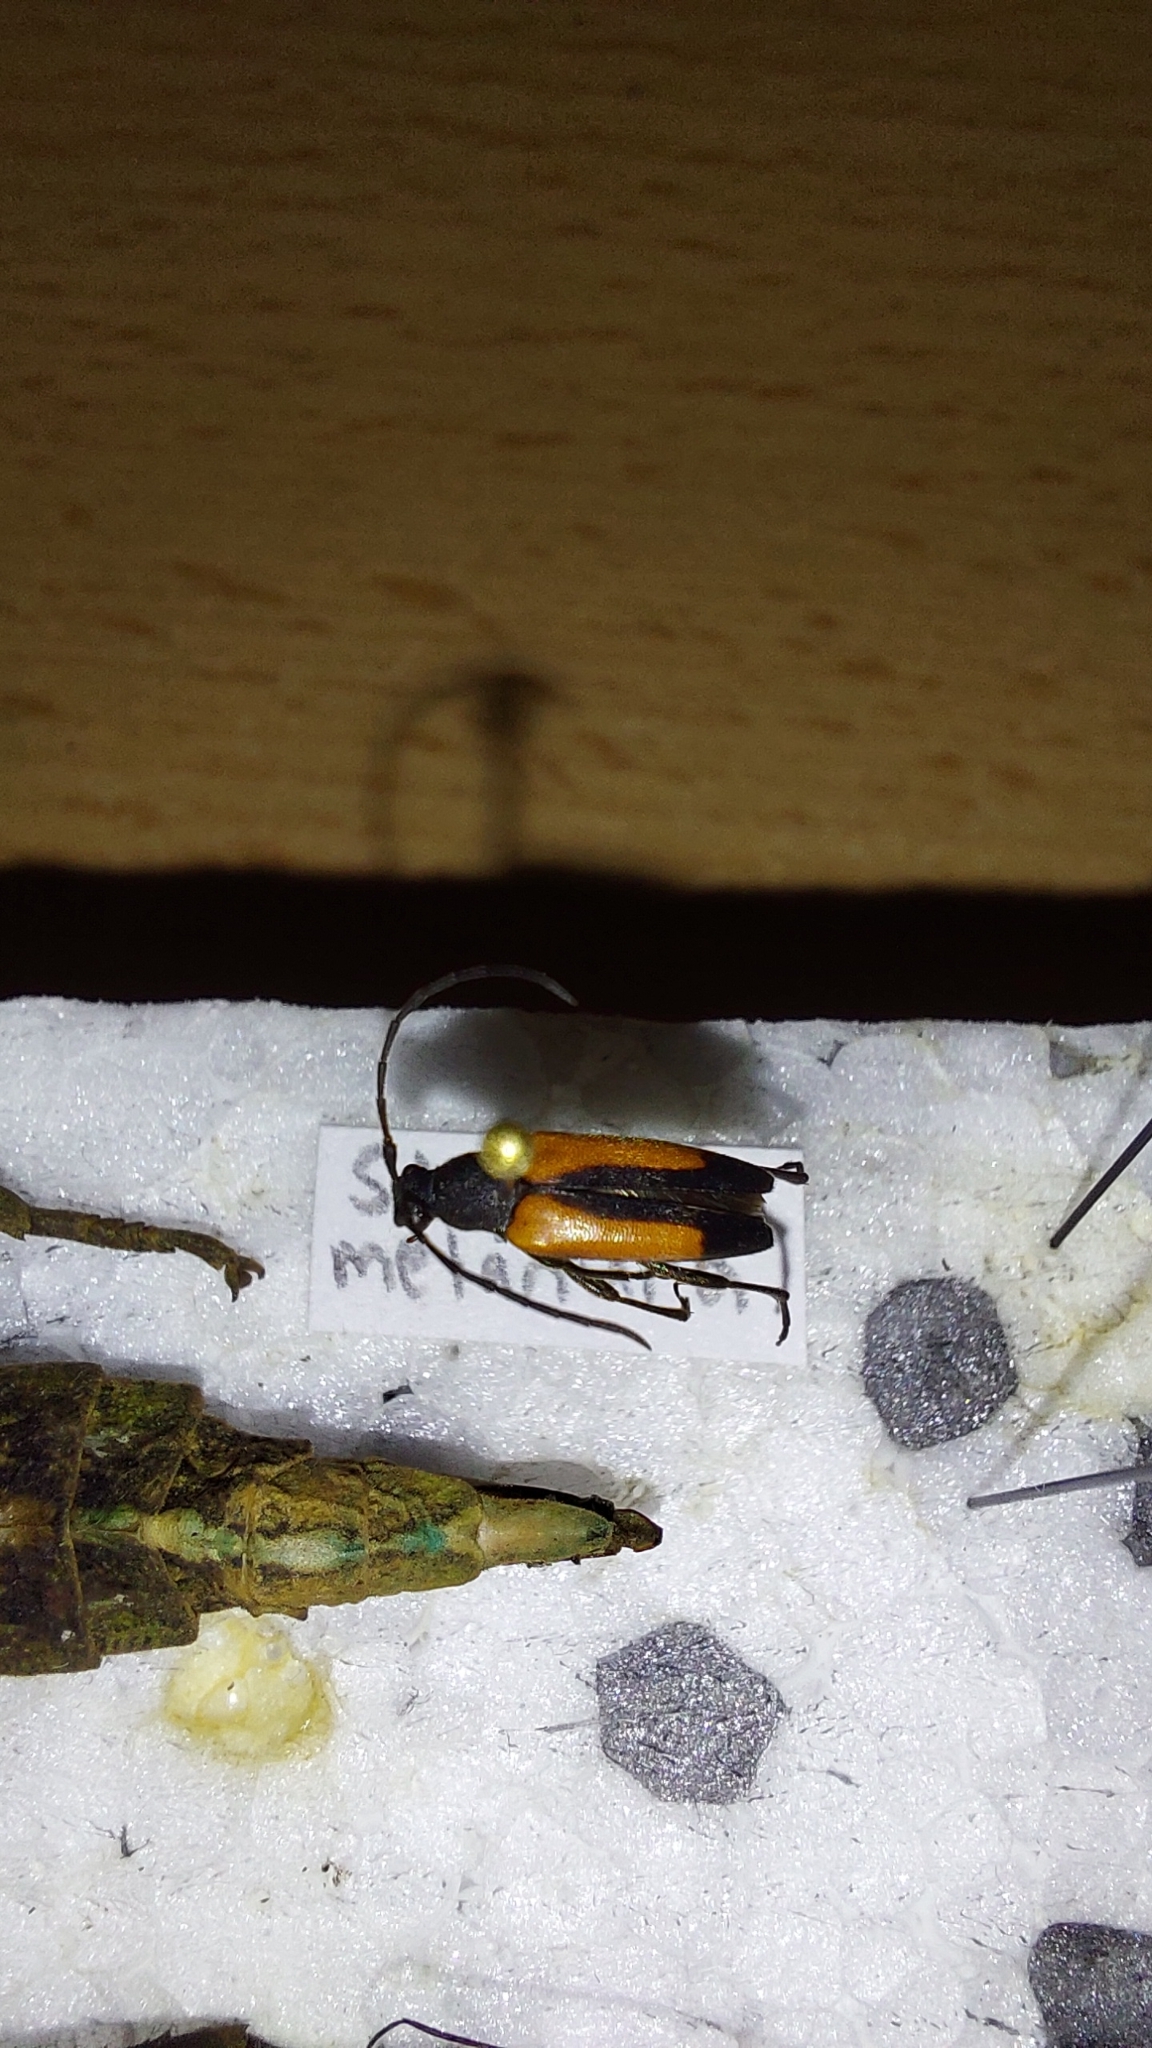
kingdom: Animalia
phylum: Arthropoda
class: Insecta
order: Coleoptera
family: Cerambycidae
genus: Stenurella
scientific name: Stenurella melanura
